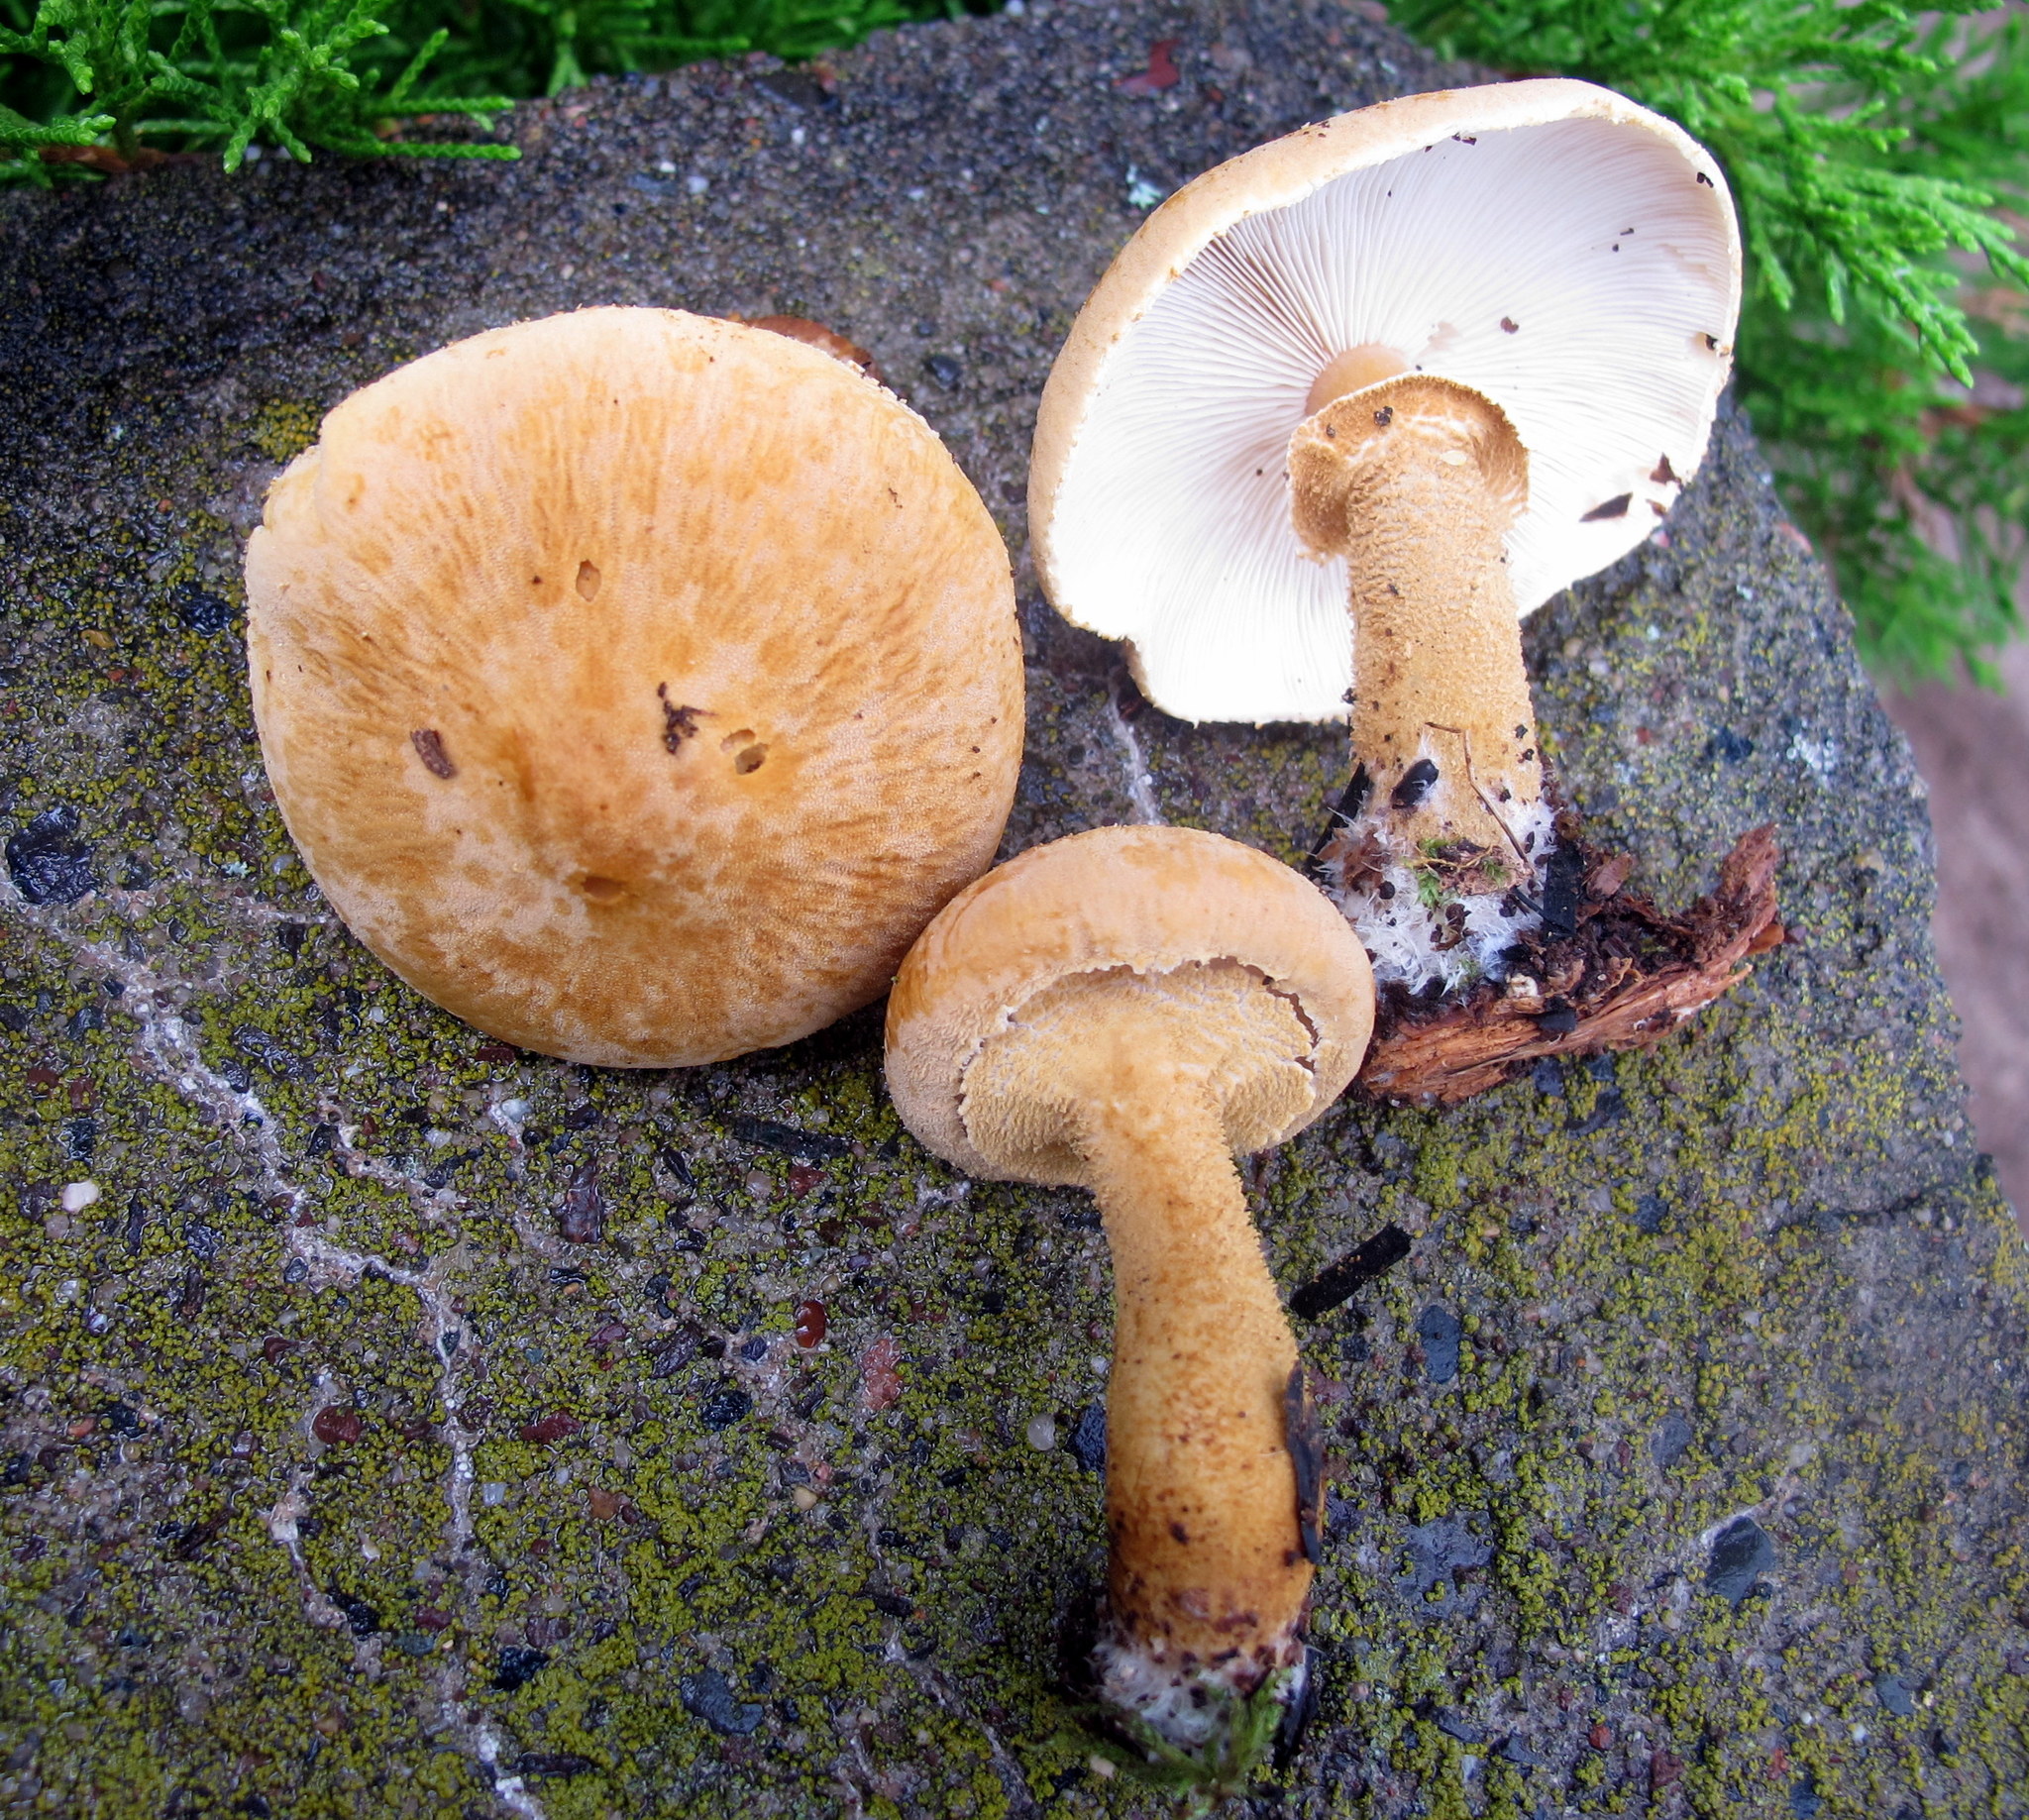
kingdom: Fungi
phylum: Basidiomycota
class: Agaricomycetes
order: Agaricales
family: Tricholomataceae
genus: Cystoderma
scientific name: Cystoderma granosum
